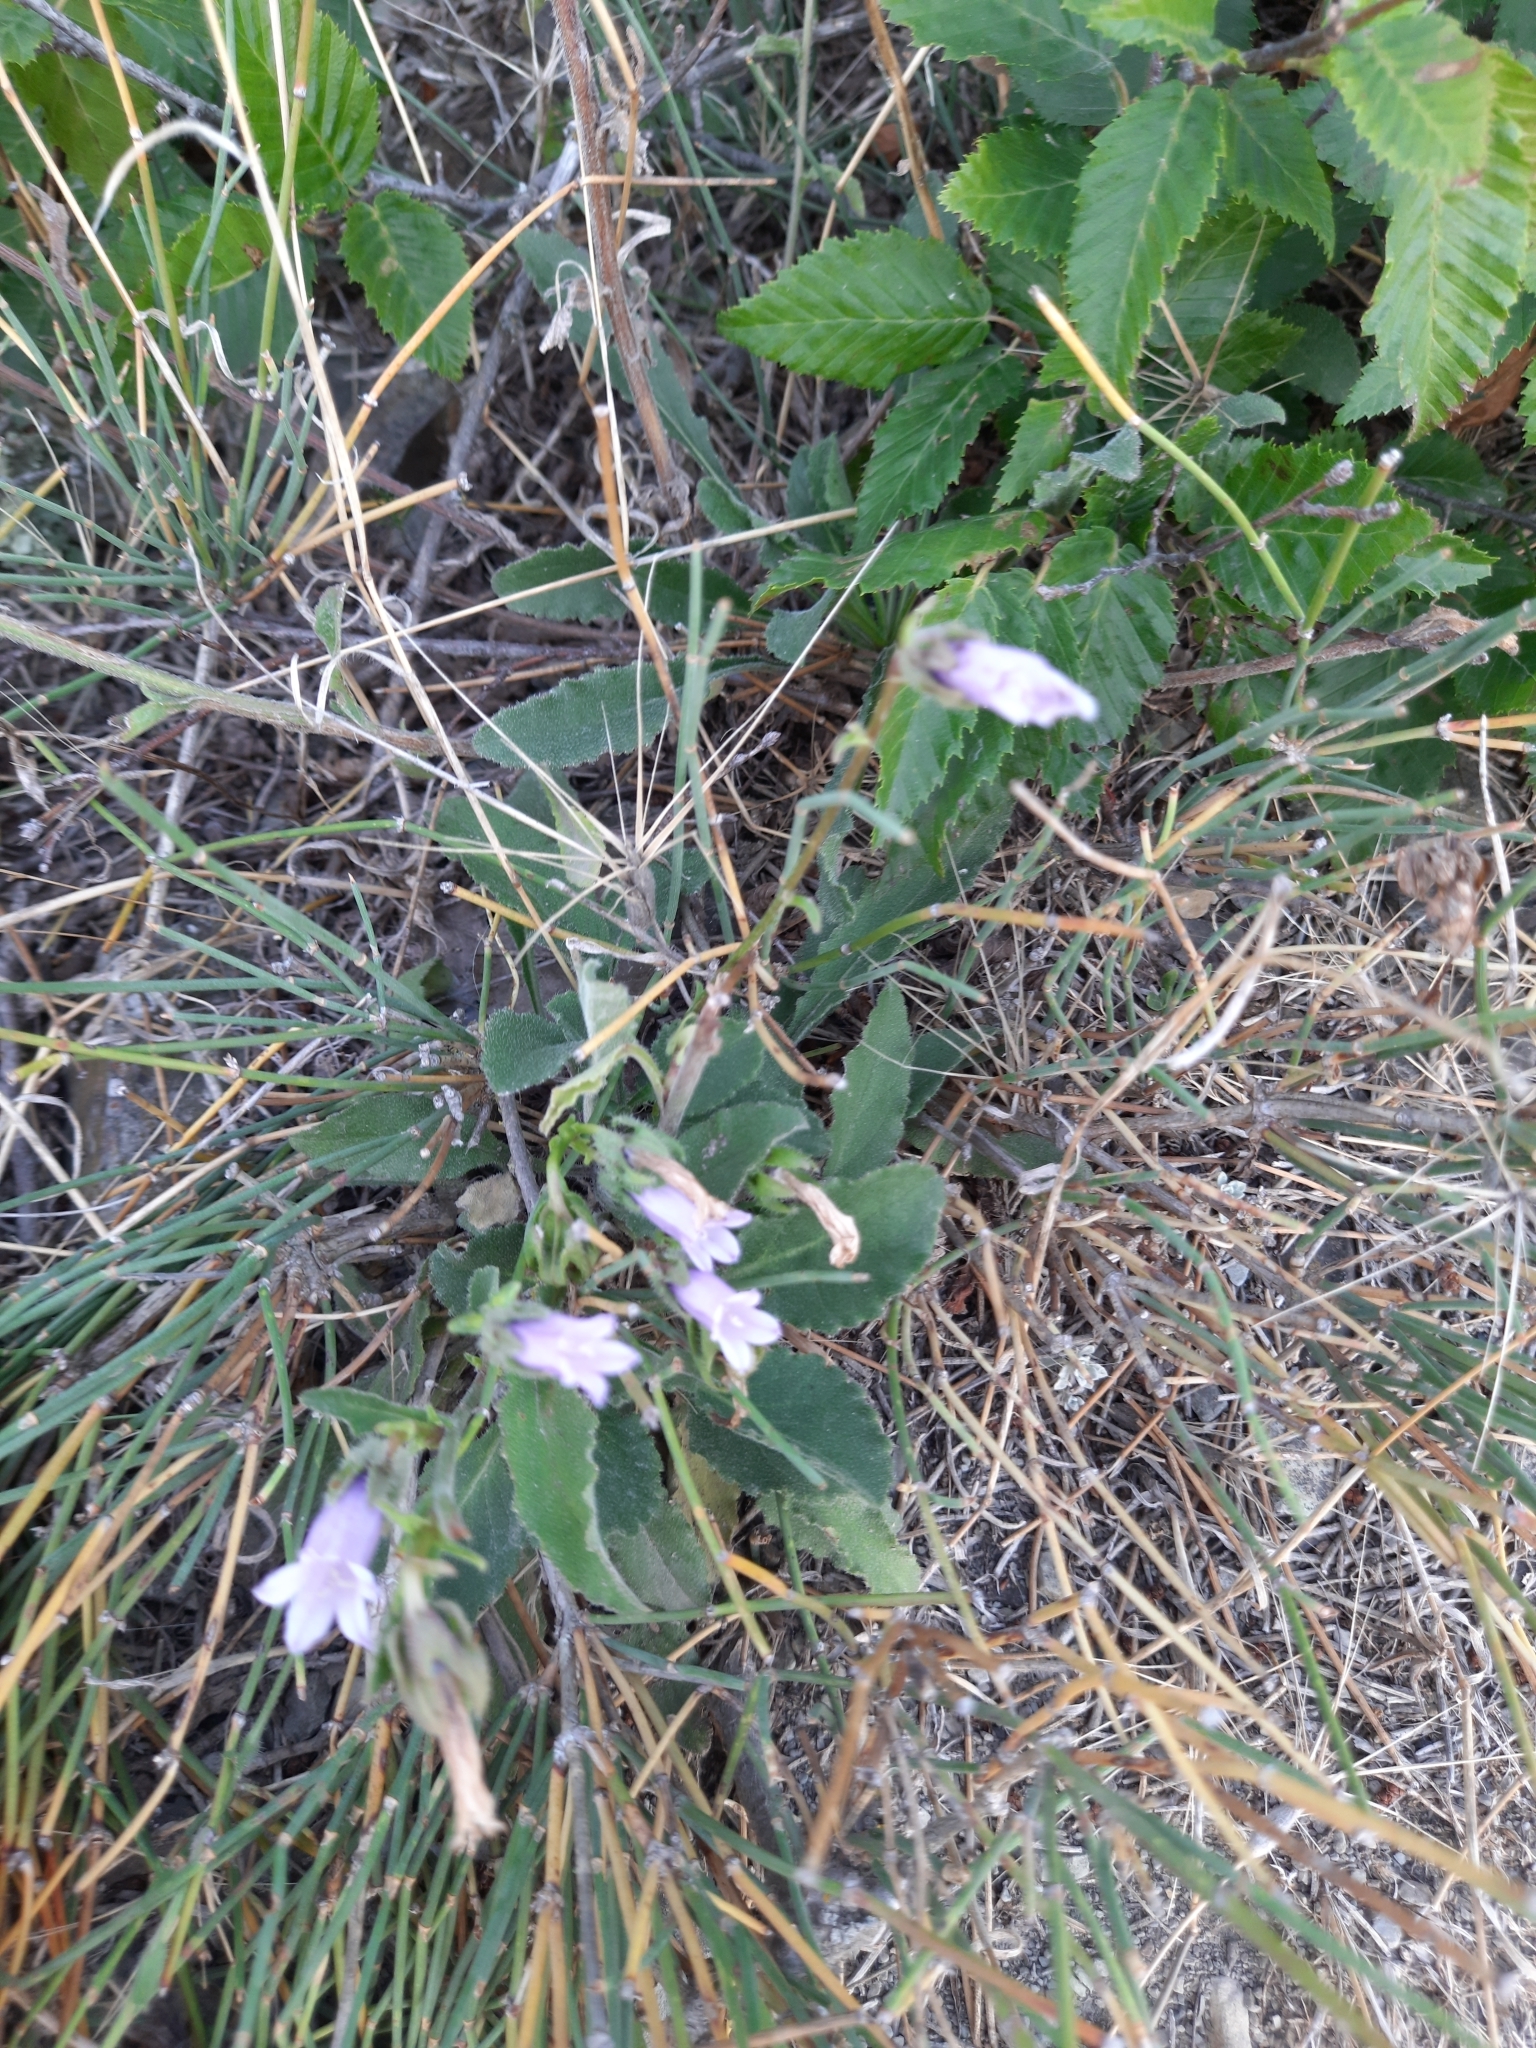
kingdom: Plantae
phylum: Tracheophyta
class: Magnoliopsida
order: Asterales
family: Campanulaceae
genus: Campanula
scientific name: Campanula komarovii
